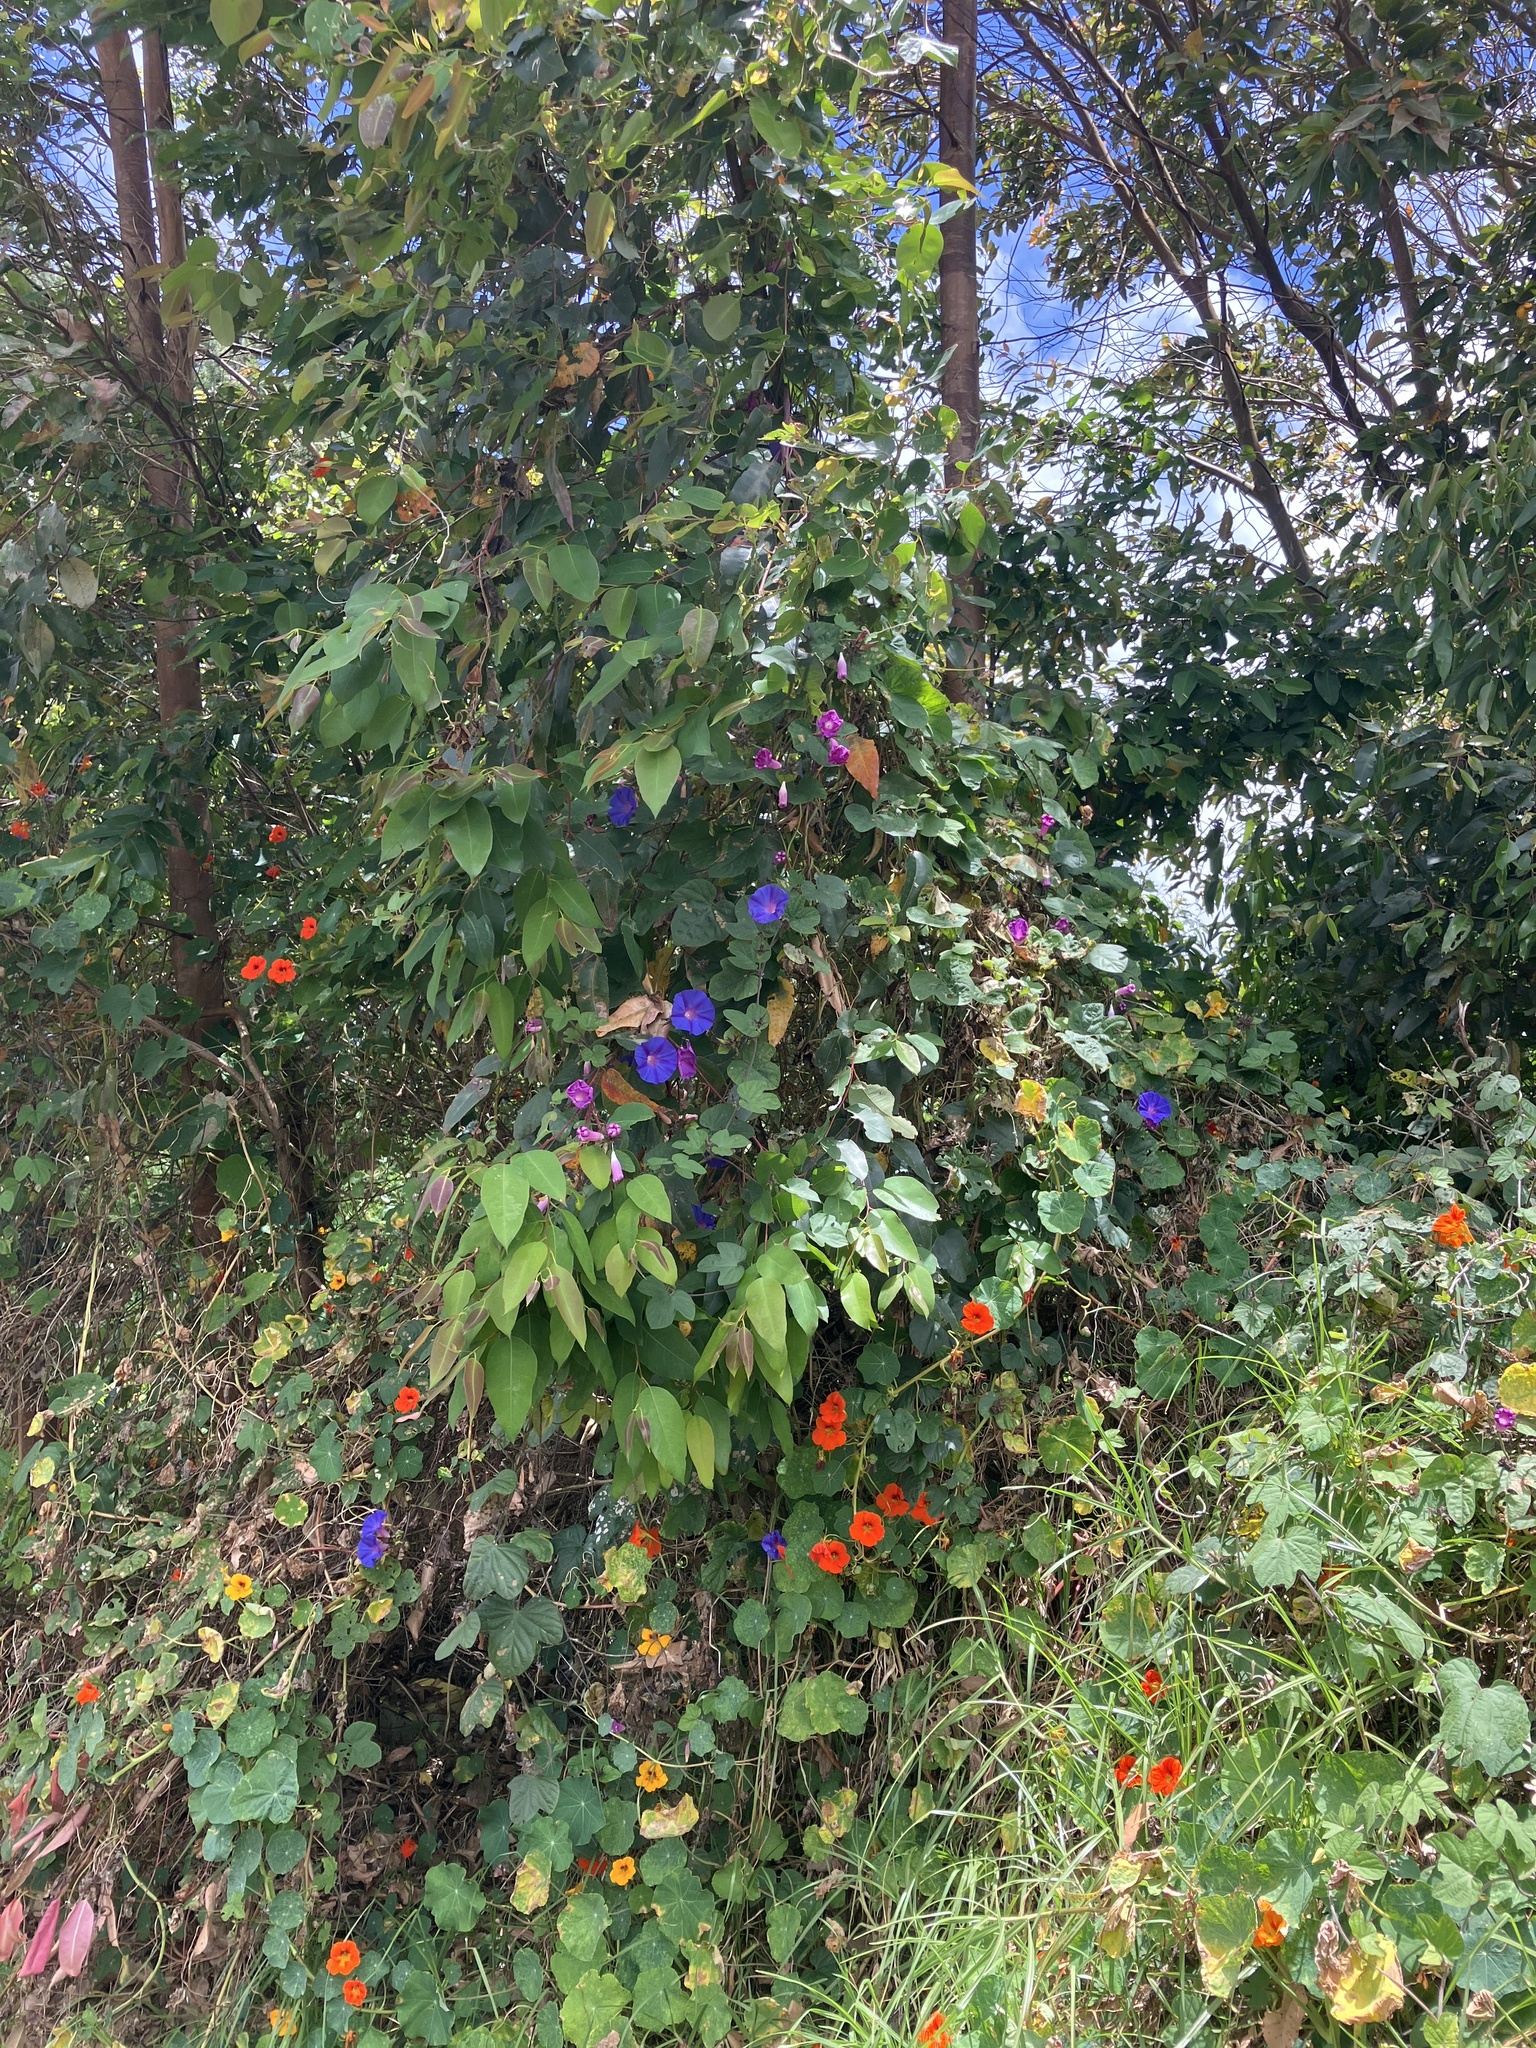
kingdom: Plantae
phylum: Tracheophyta
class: Magnoliopsida
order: Solanales
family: Convolvulaceae
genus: Ipomoea
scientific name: Ipomoea indica
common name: Blue dawnflower
